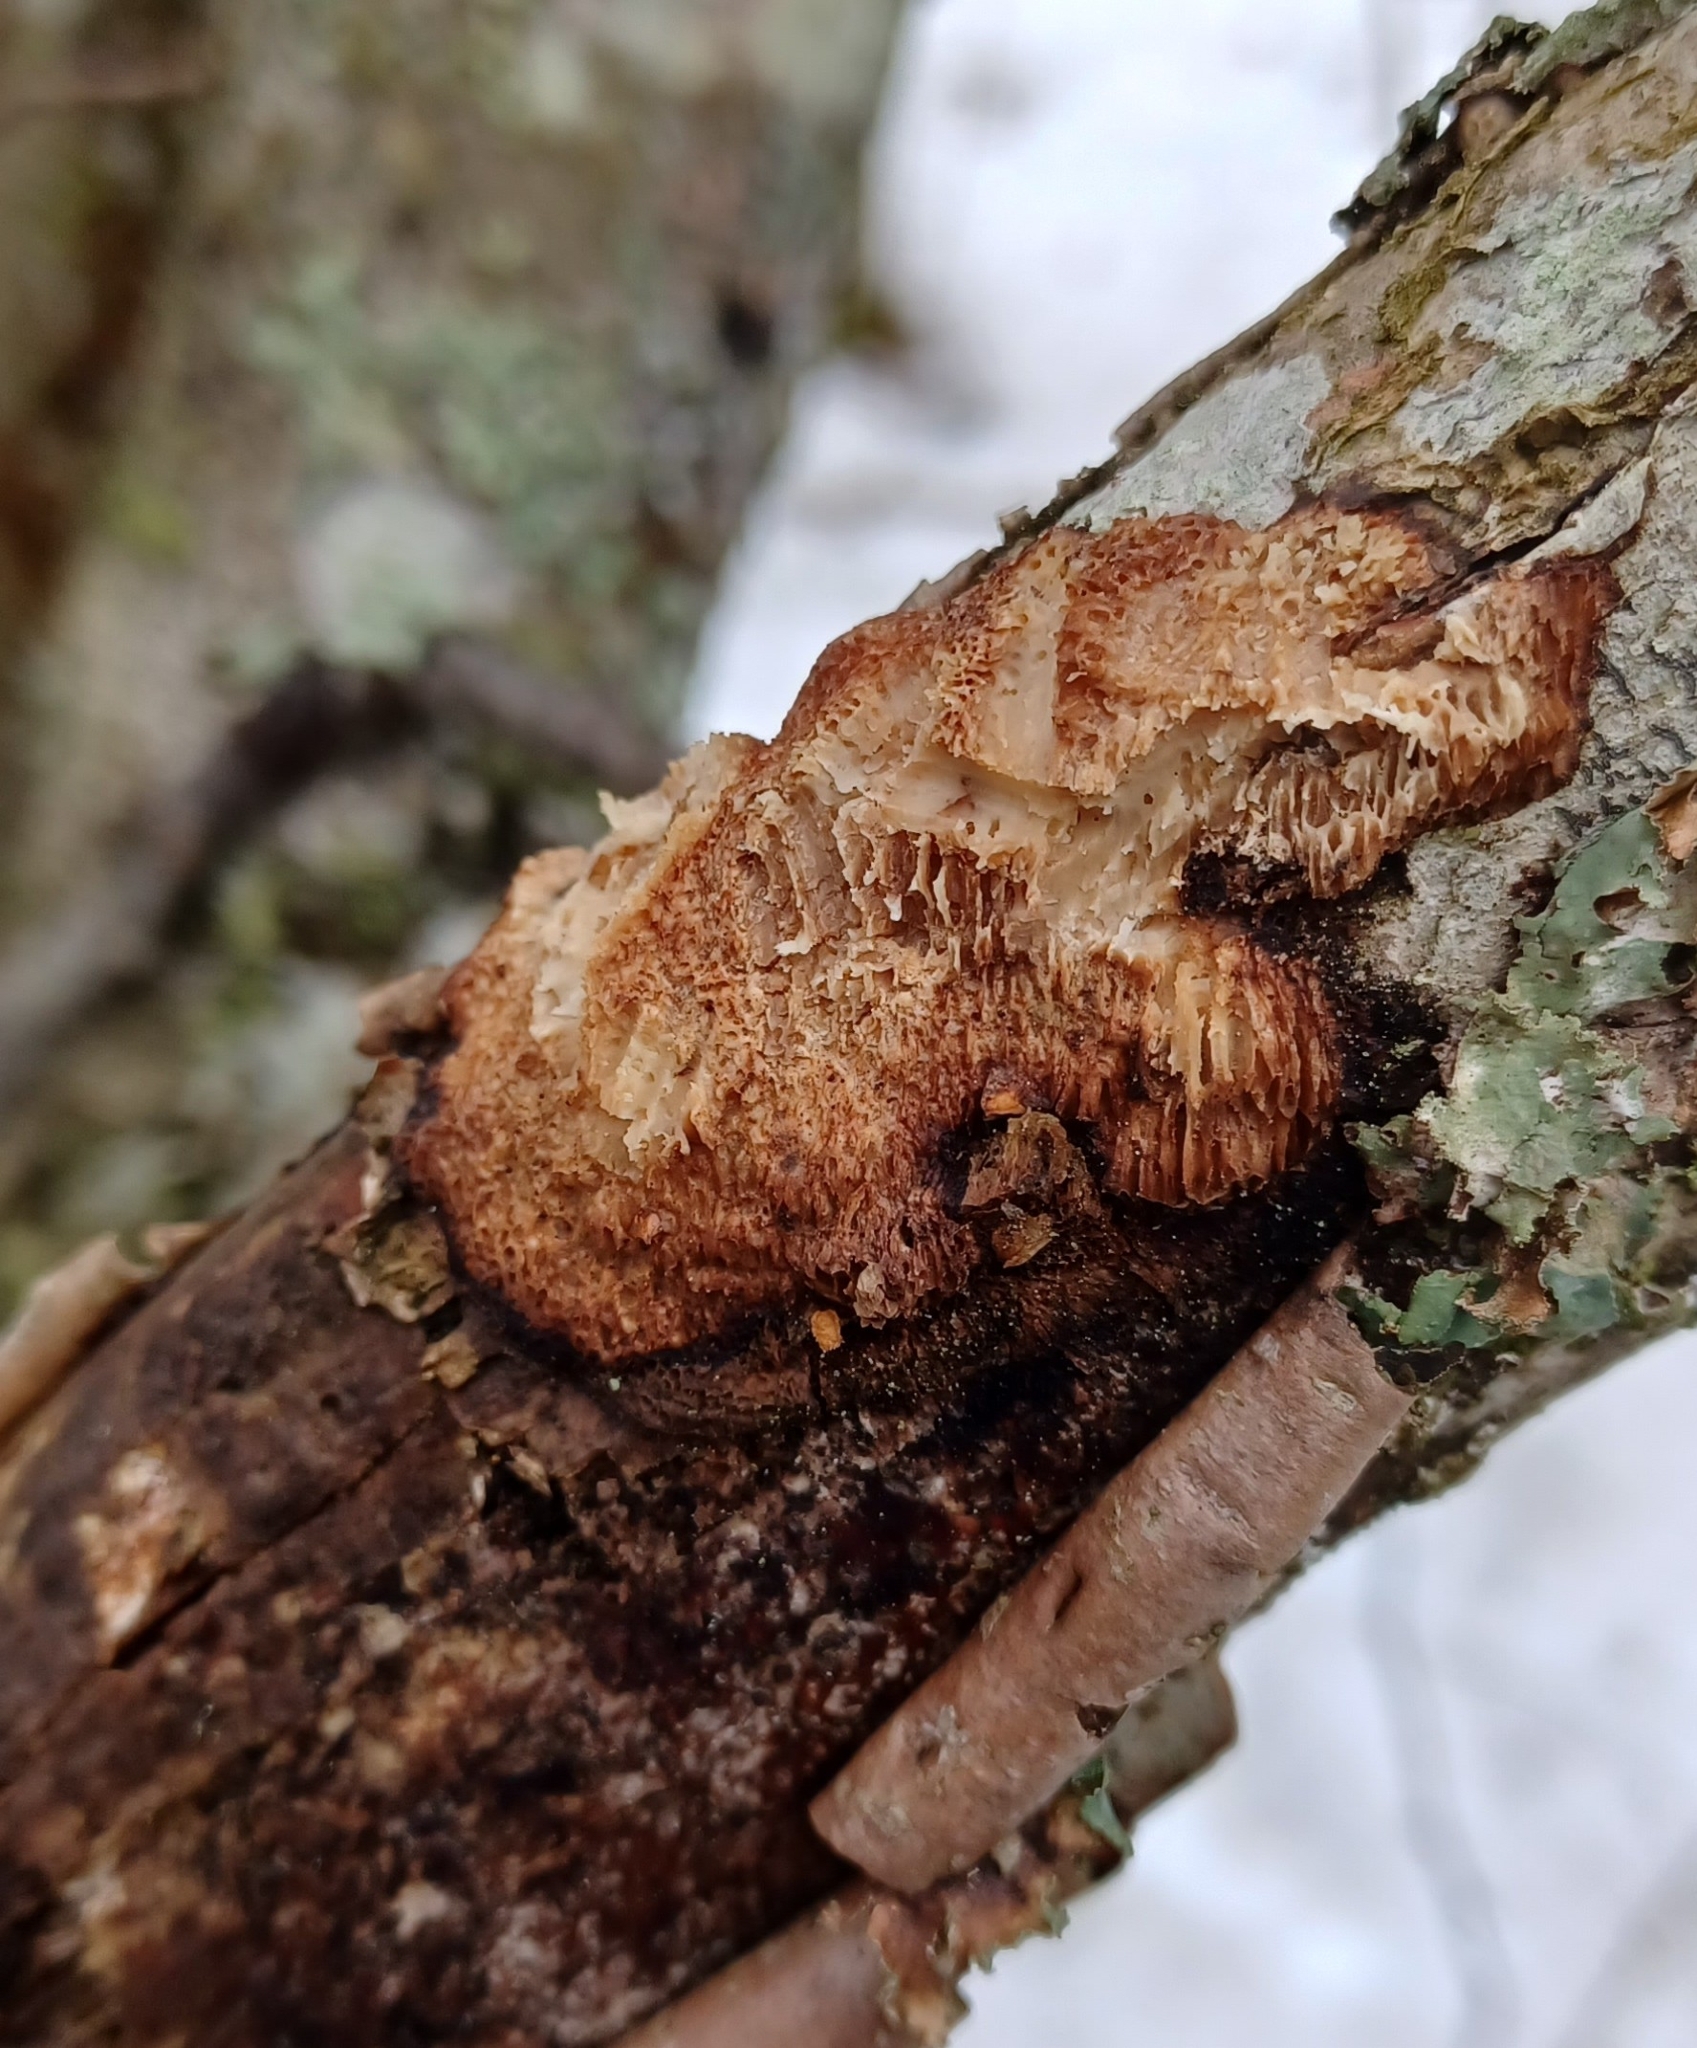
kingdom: Fungi
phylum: Basidiomycota
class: Agaricomycetes
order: Polyporales
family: Polyporaceae
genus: Szczepkamyces
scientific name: Szczepkamyces campestris
